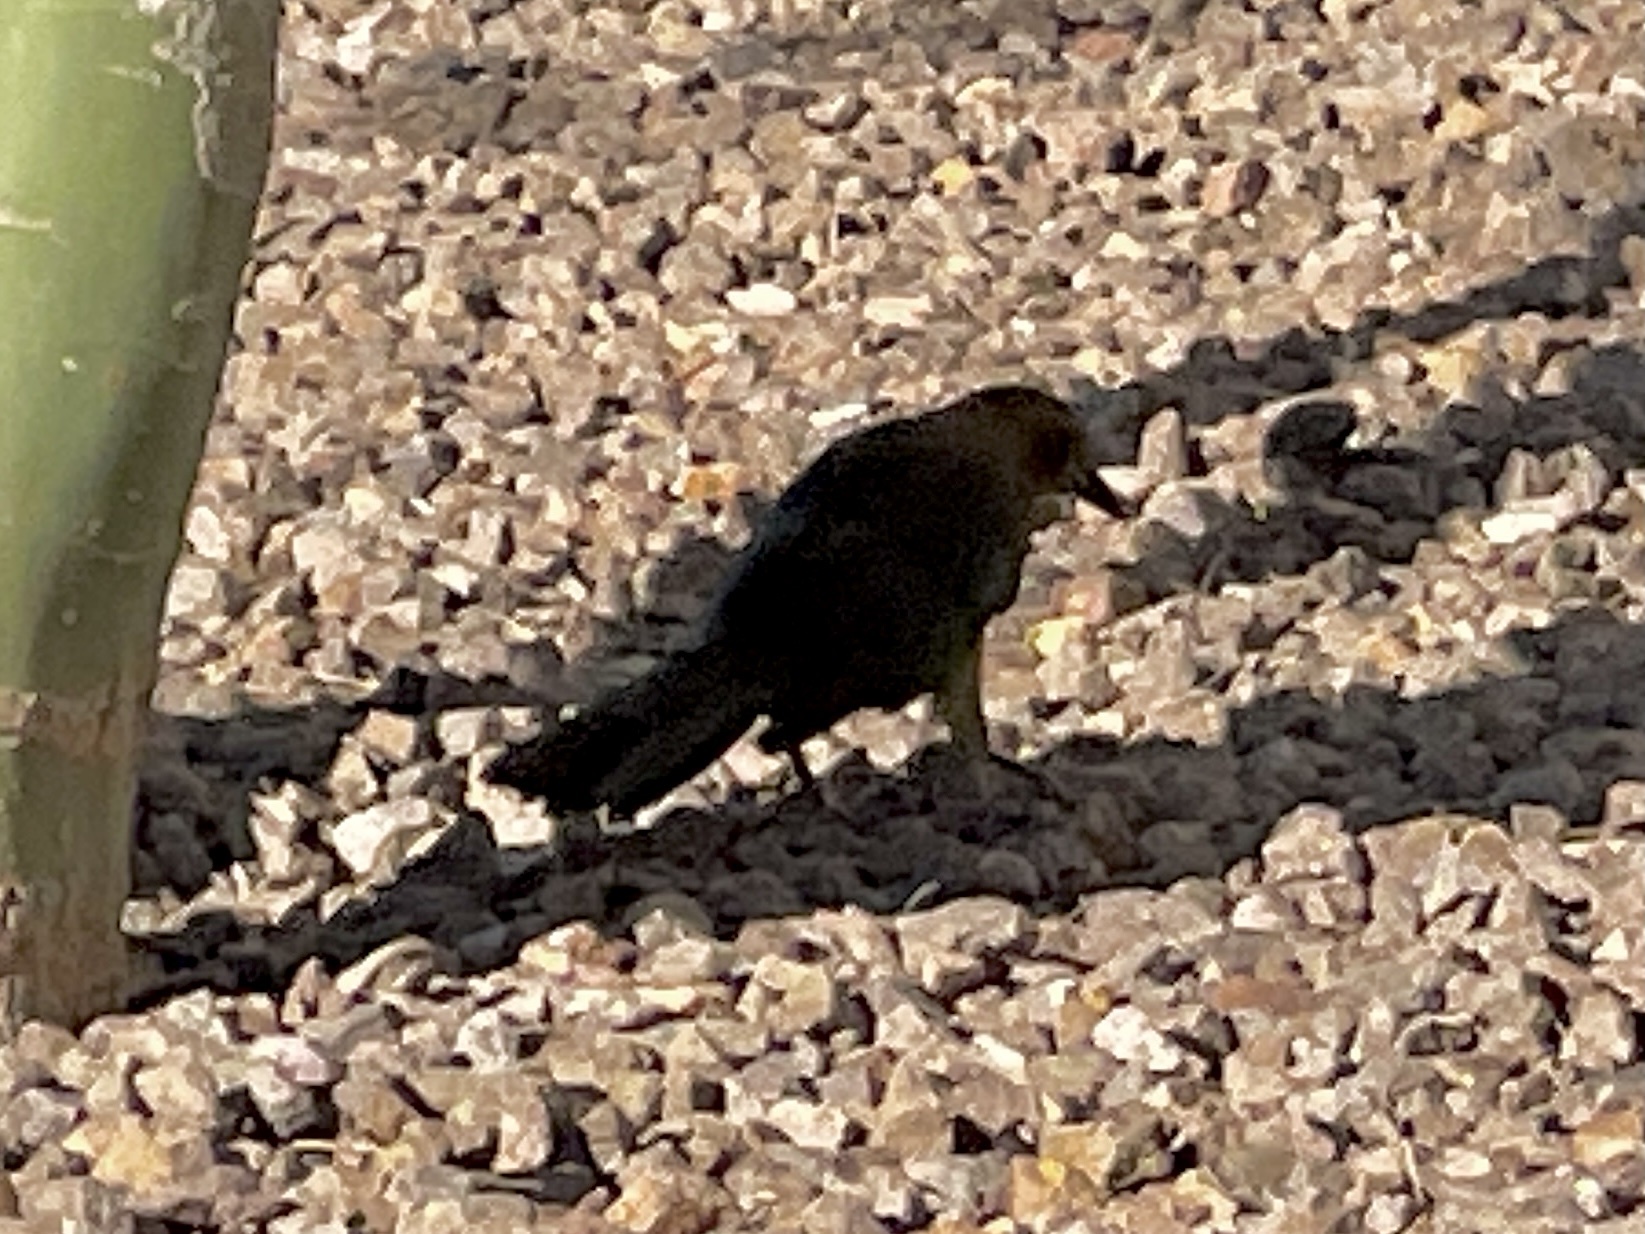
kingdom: Animalia
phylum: Chordata
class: Aves
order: Passeriformes
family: Icteridae
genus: Quiscalus
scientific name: Quiscalus mexicanus
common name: Great-tailed grackle
